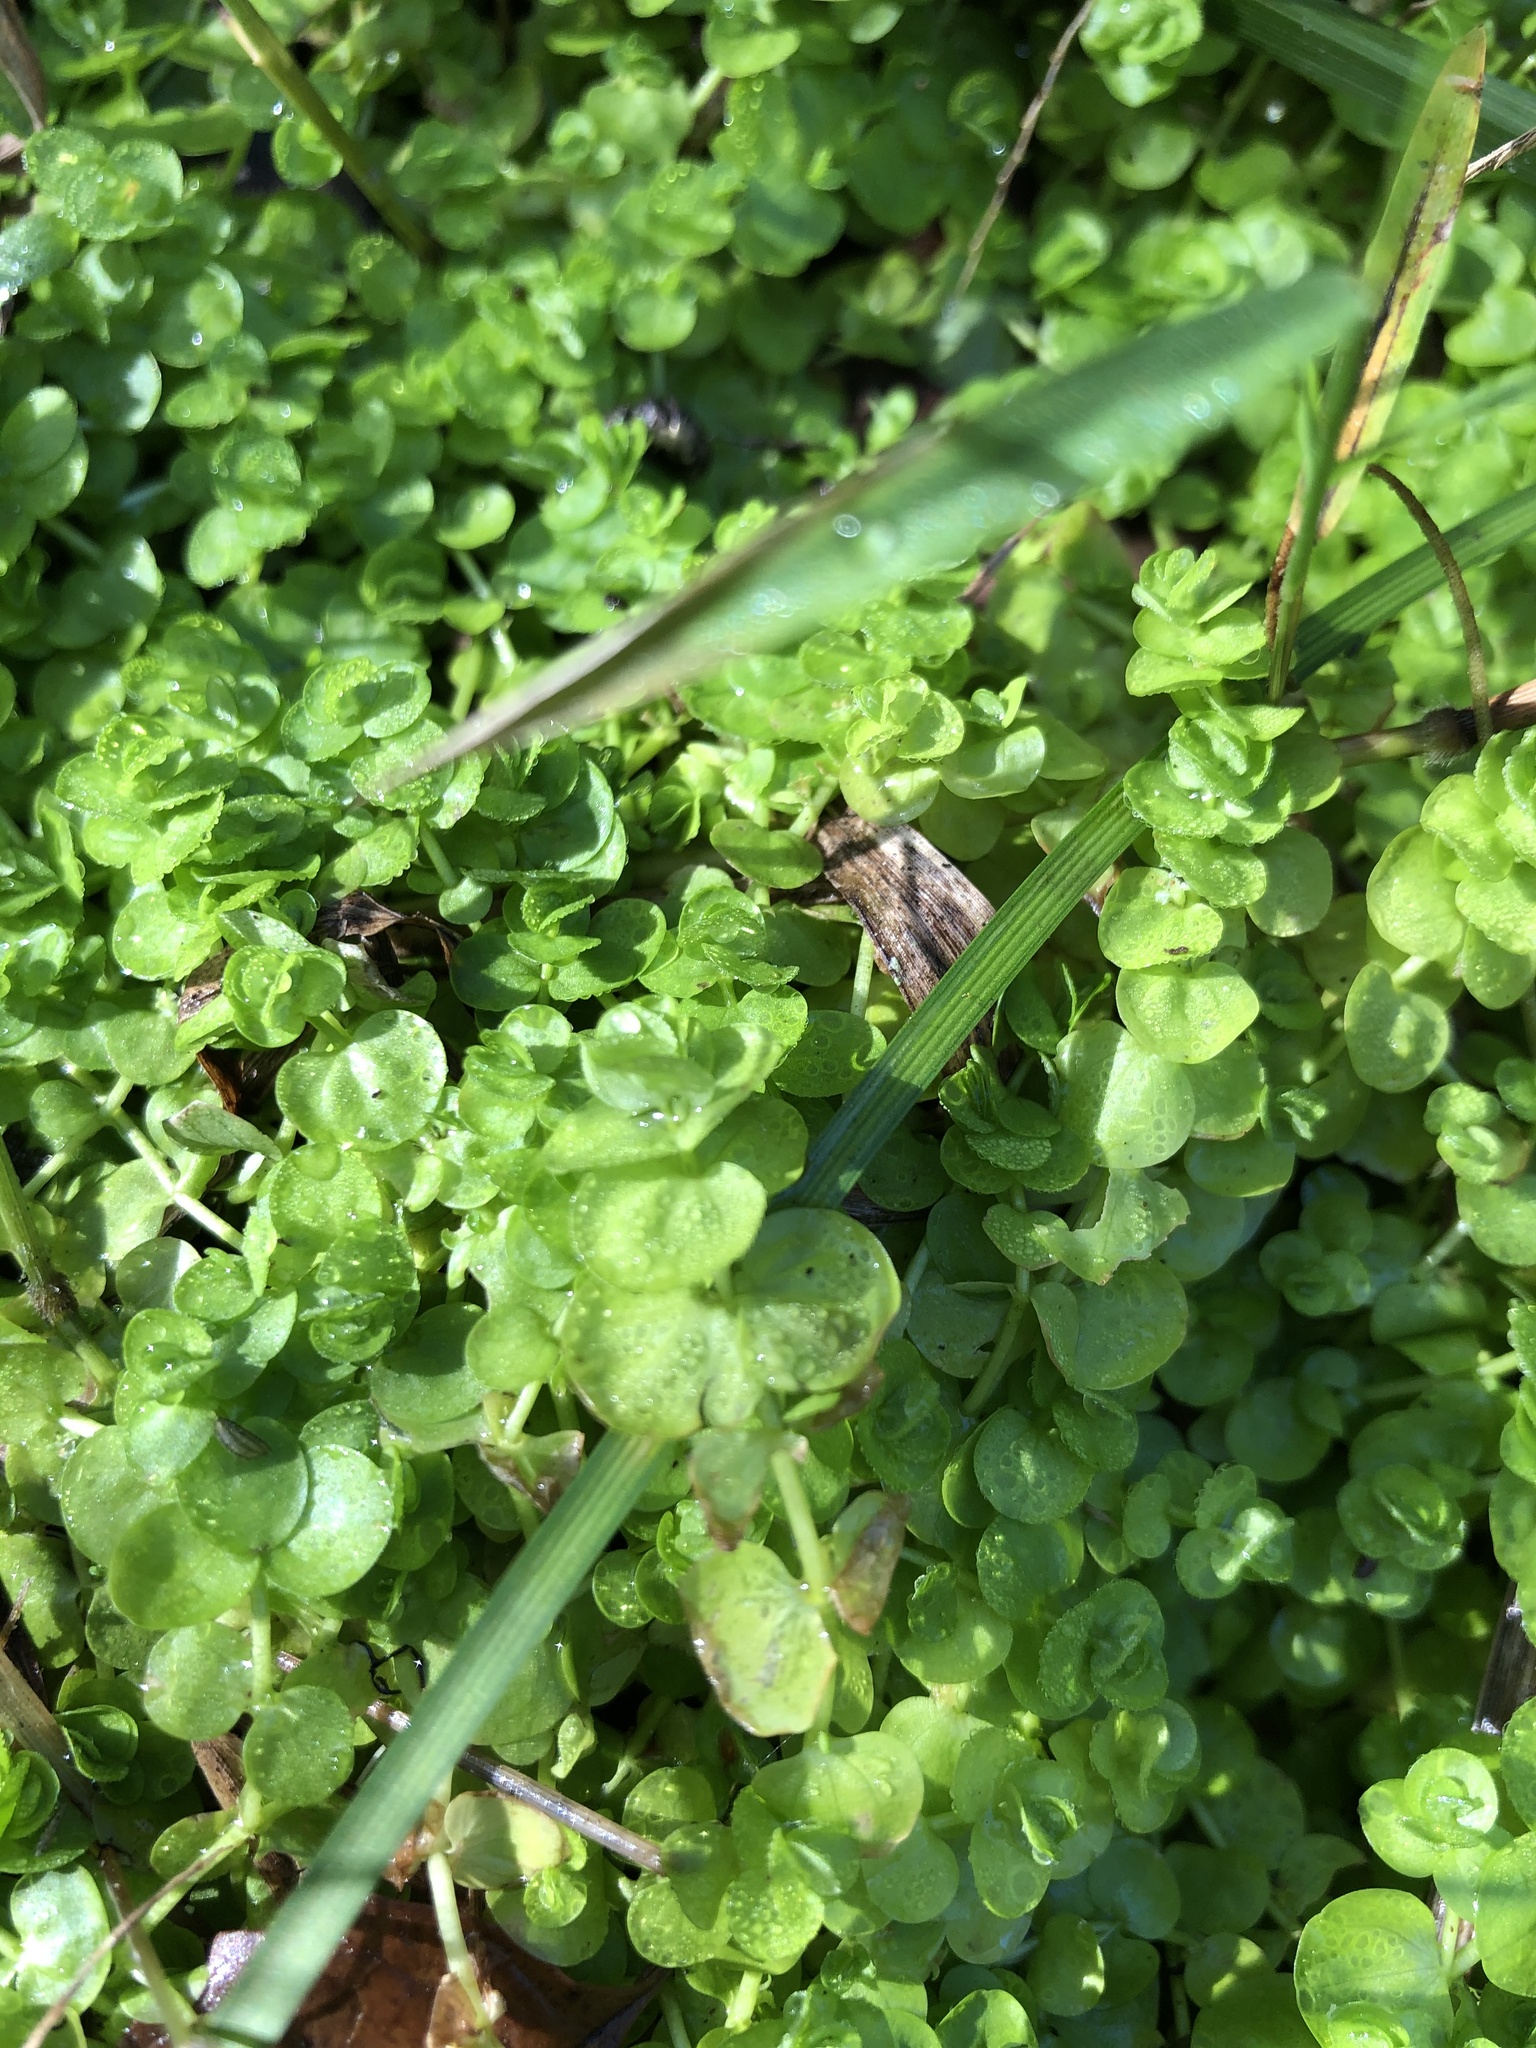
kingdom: Plantae
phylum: Tracheophyta
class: Magnoliopsida
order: Lamiales
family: Linderniaceae
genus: Micranthemum
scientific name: Micranthemum umbrosum
